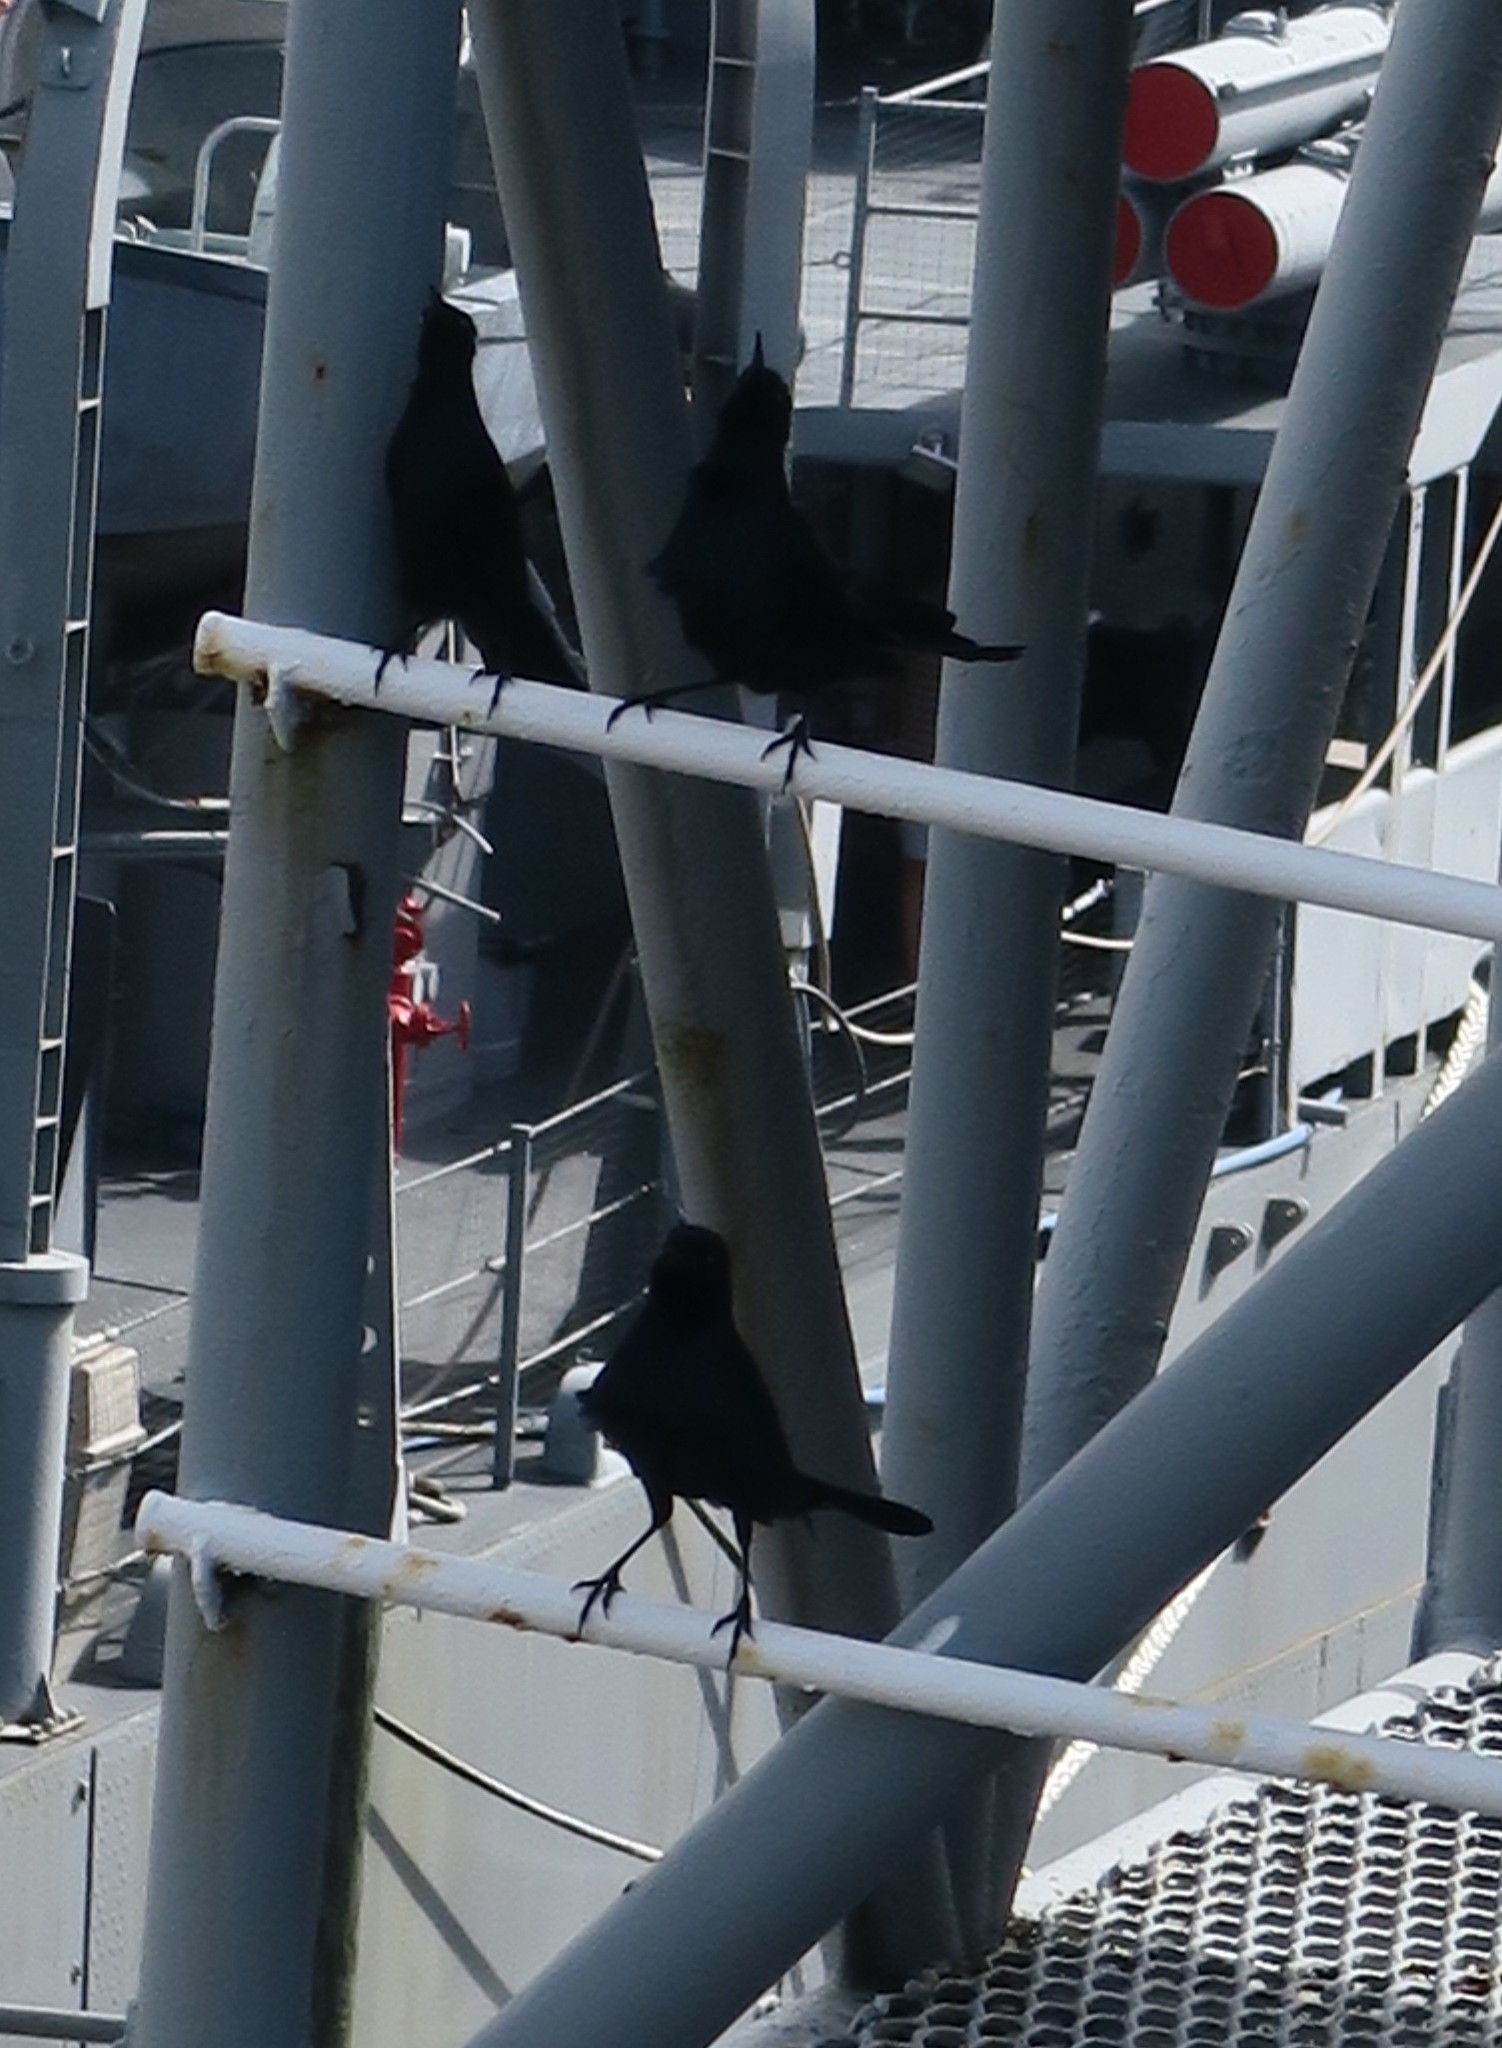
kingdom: Animalia
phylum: Chordata
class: Aves
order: Passeriformes
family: Icteridae
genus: Quiscalus
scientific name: Quiscalus major
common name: Boat-tailed grackle
